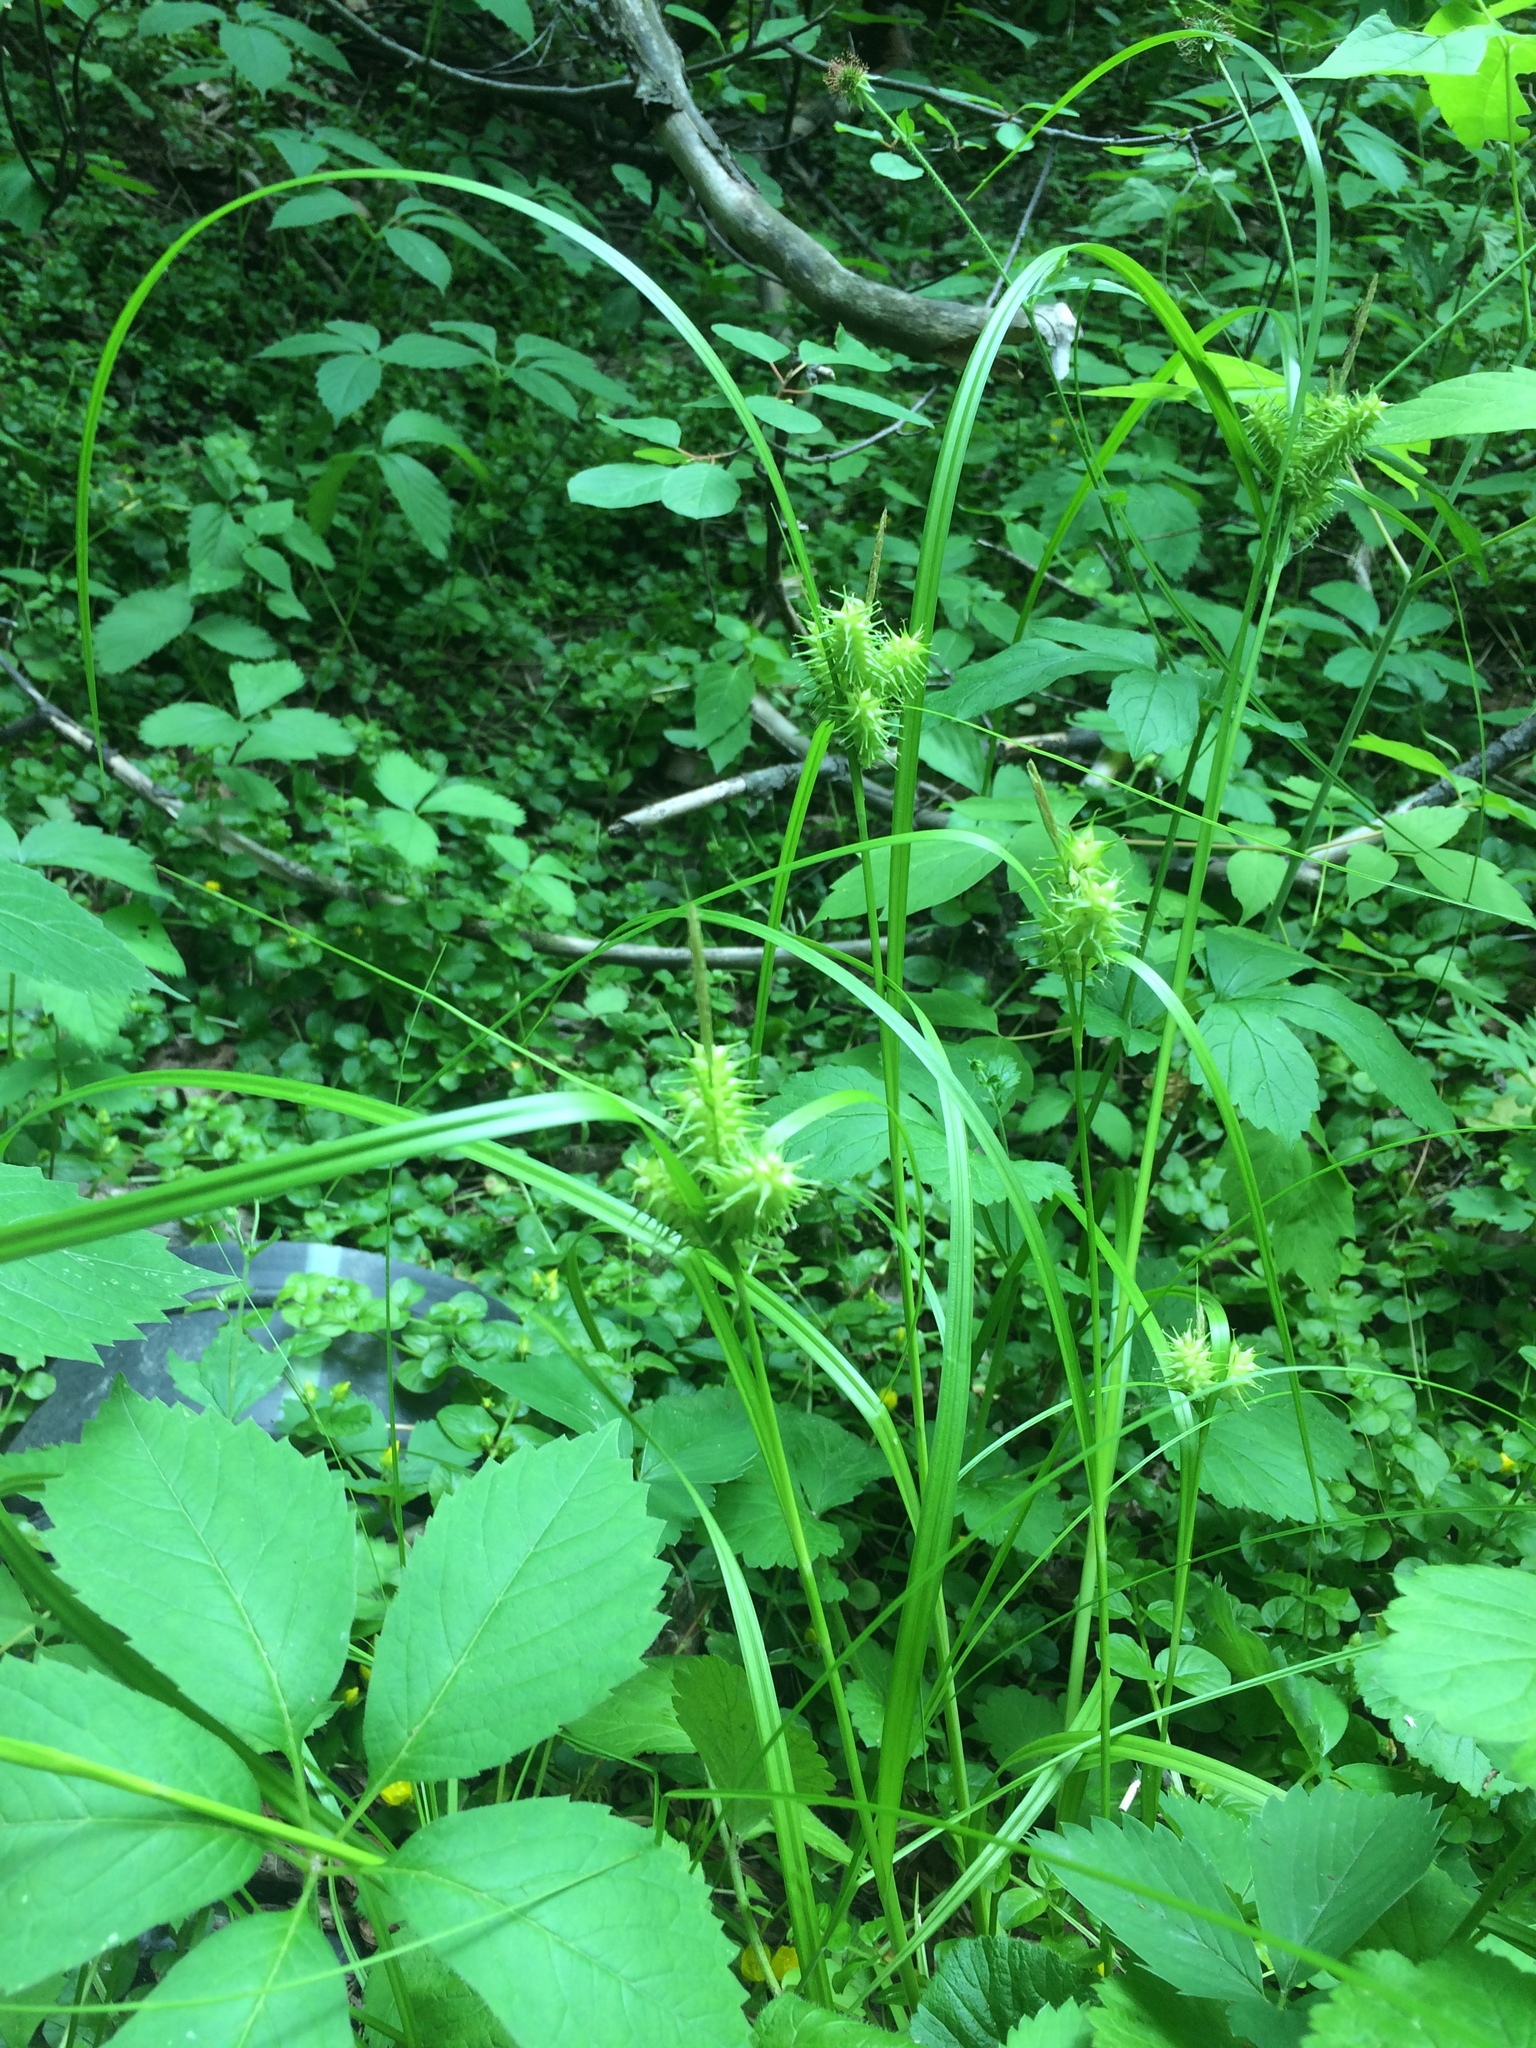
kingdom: Plantae
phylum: Tracheophyta
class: Liliopsida
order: Poales
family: Cyperaceae
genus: Carex
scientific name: Carex retrorsa
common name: Knot-sheath sedge
